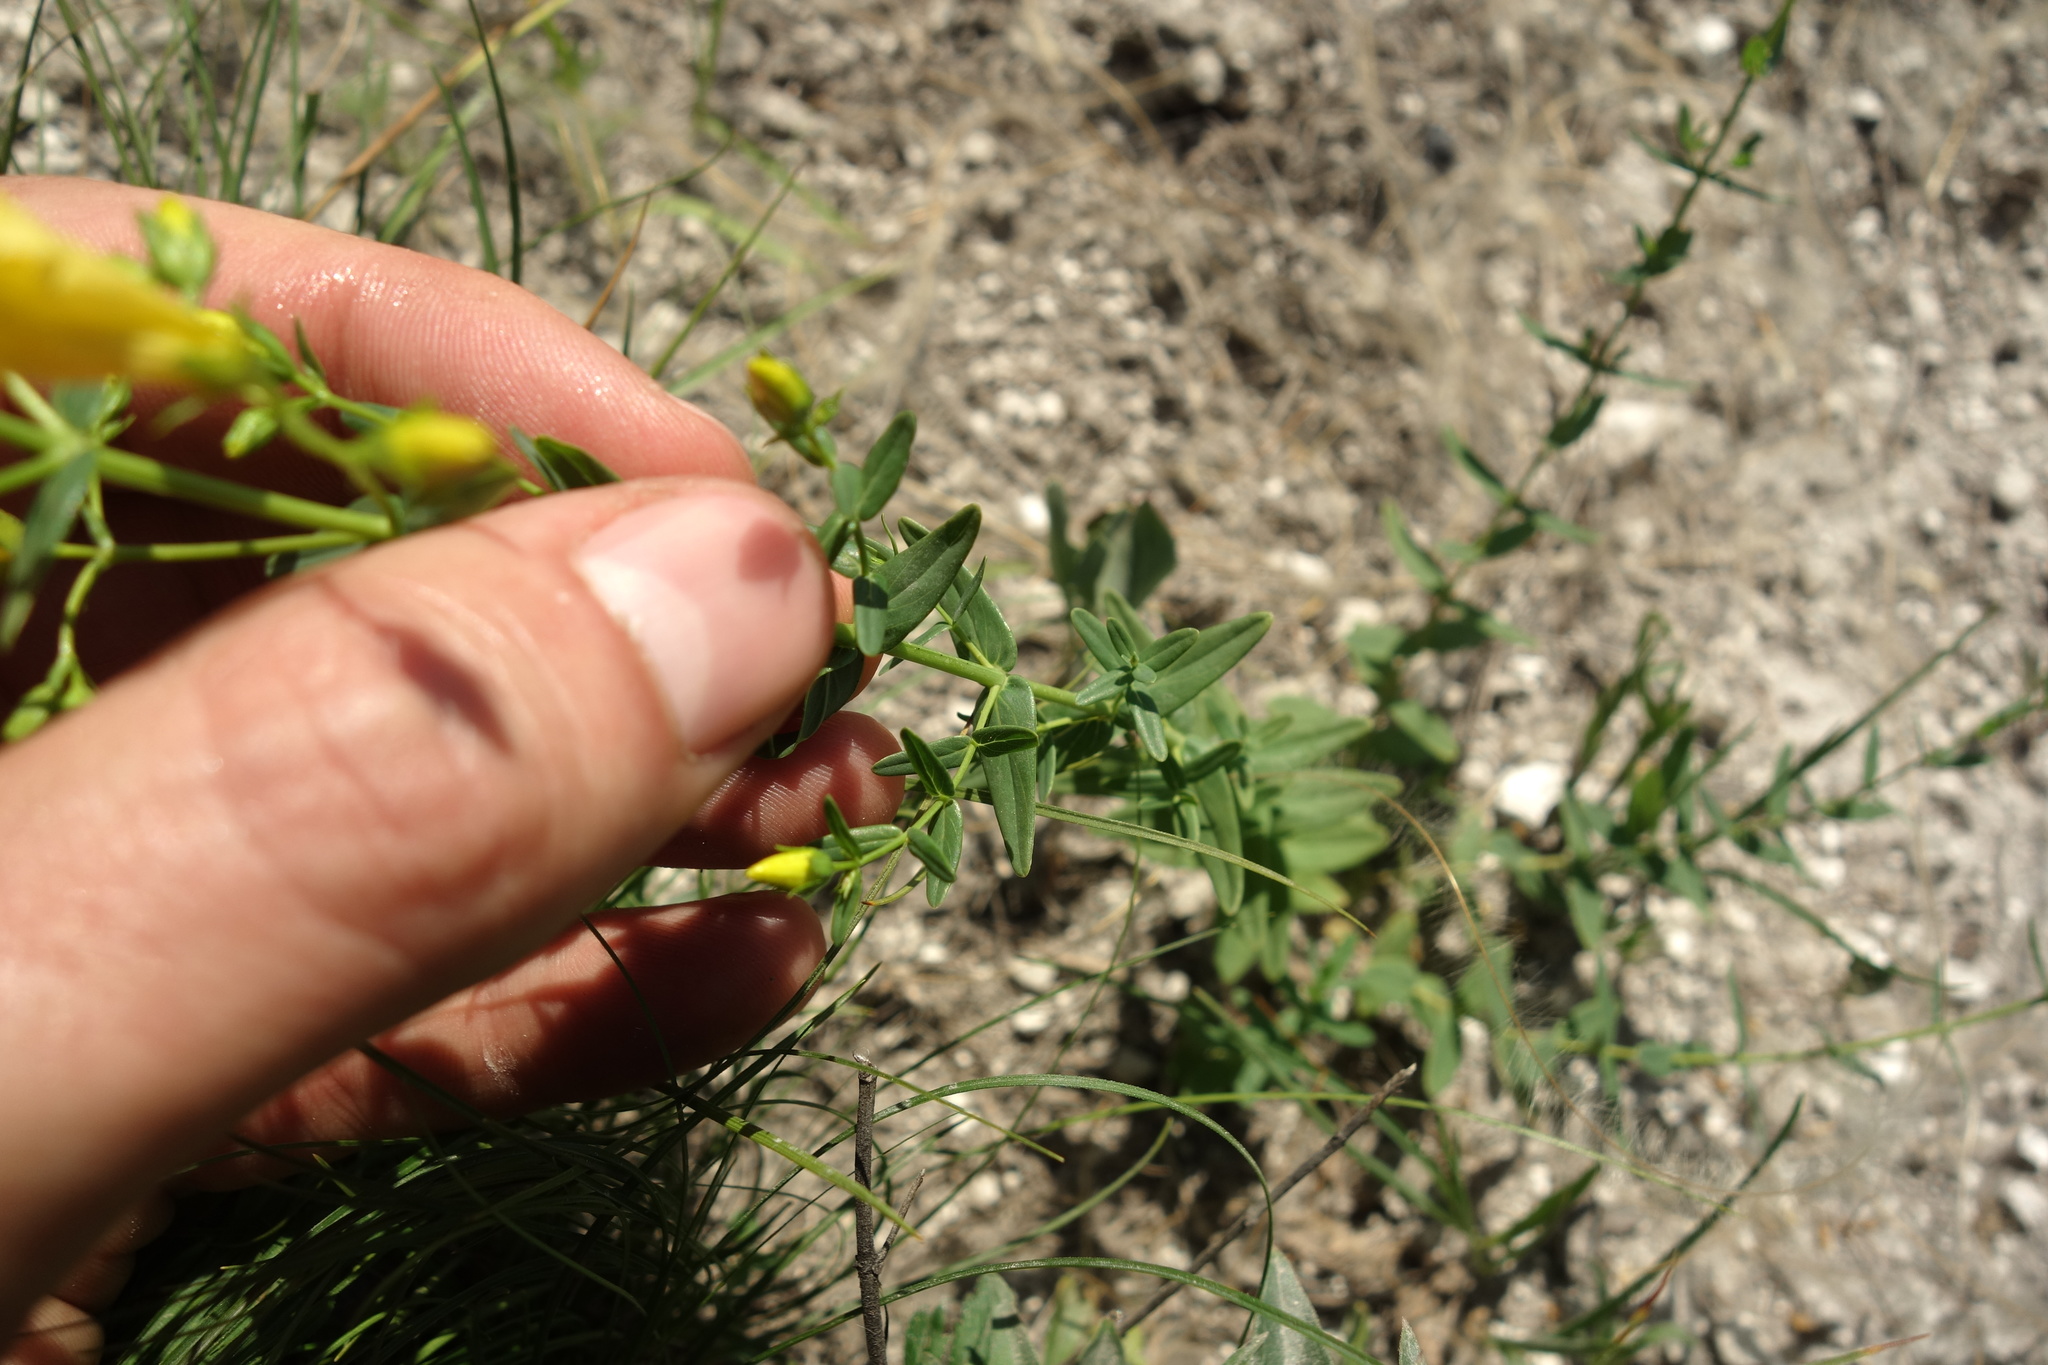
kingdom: Plantae
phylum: Tracheophyta
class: Magnoliopsida
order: Malpighiales
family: Hypericaceae
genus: Hypericum
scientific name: Hypericum elegans
